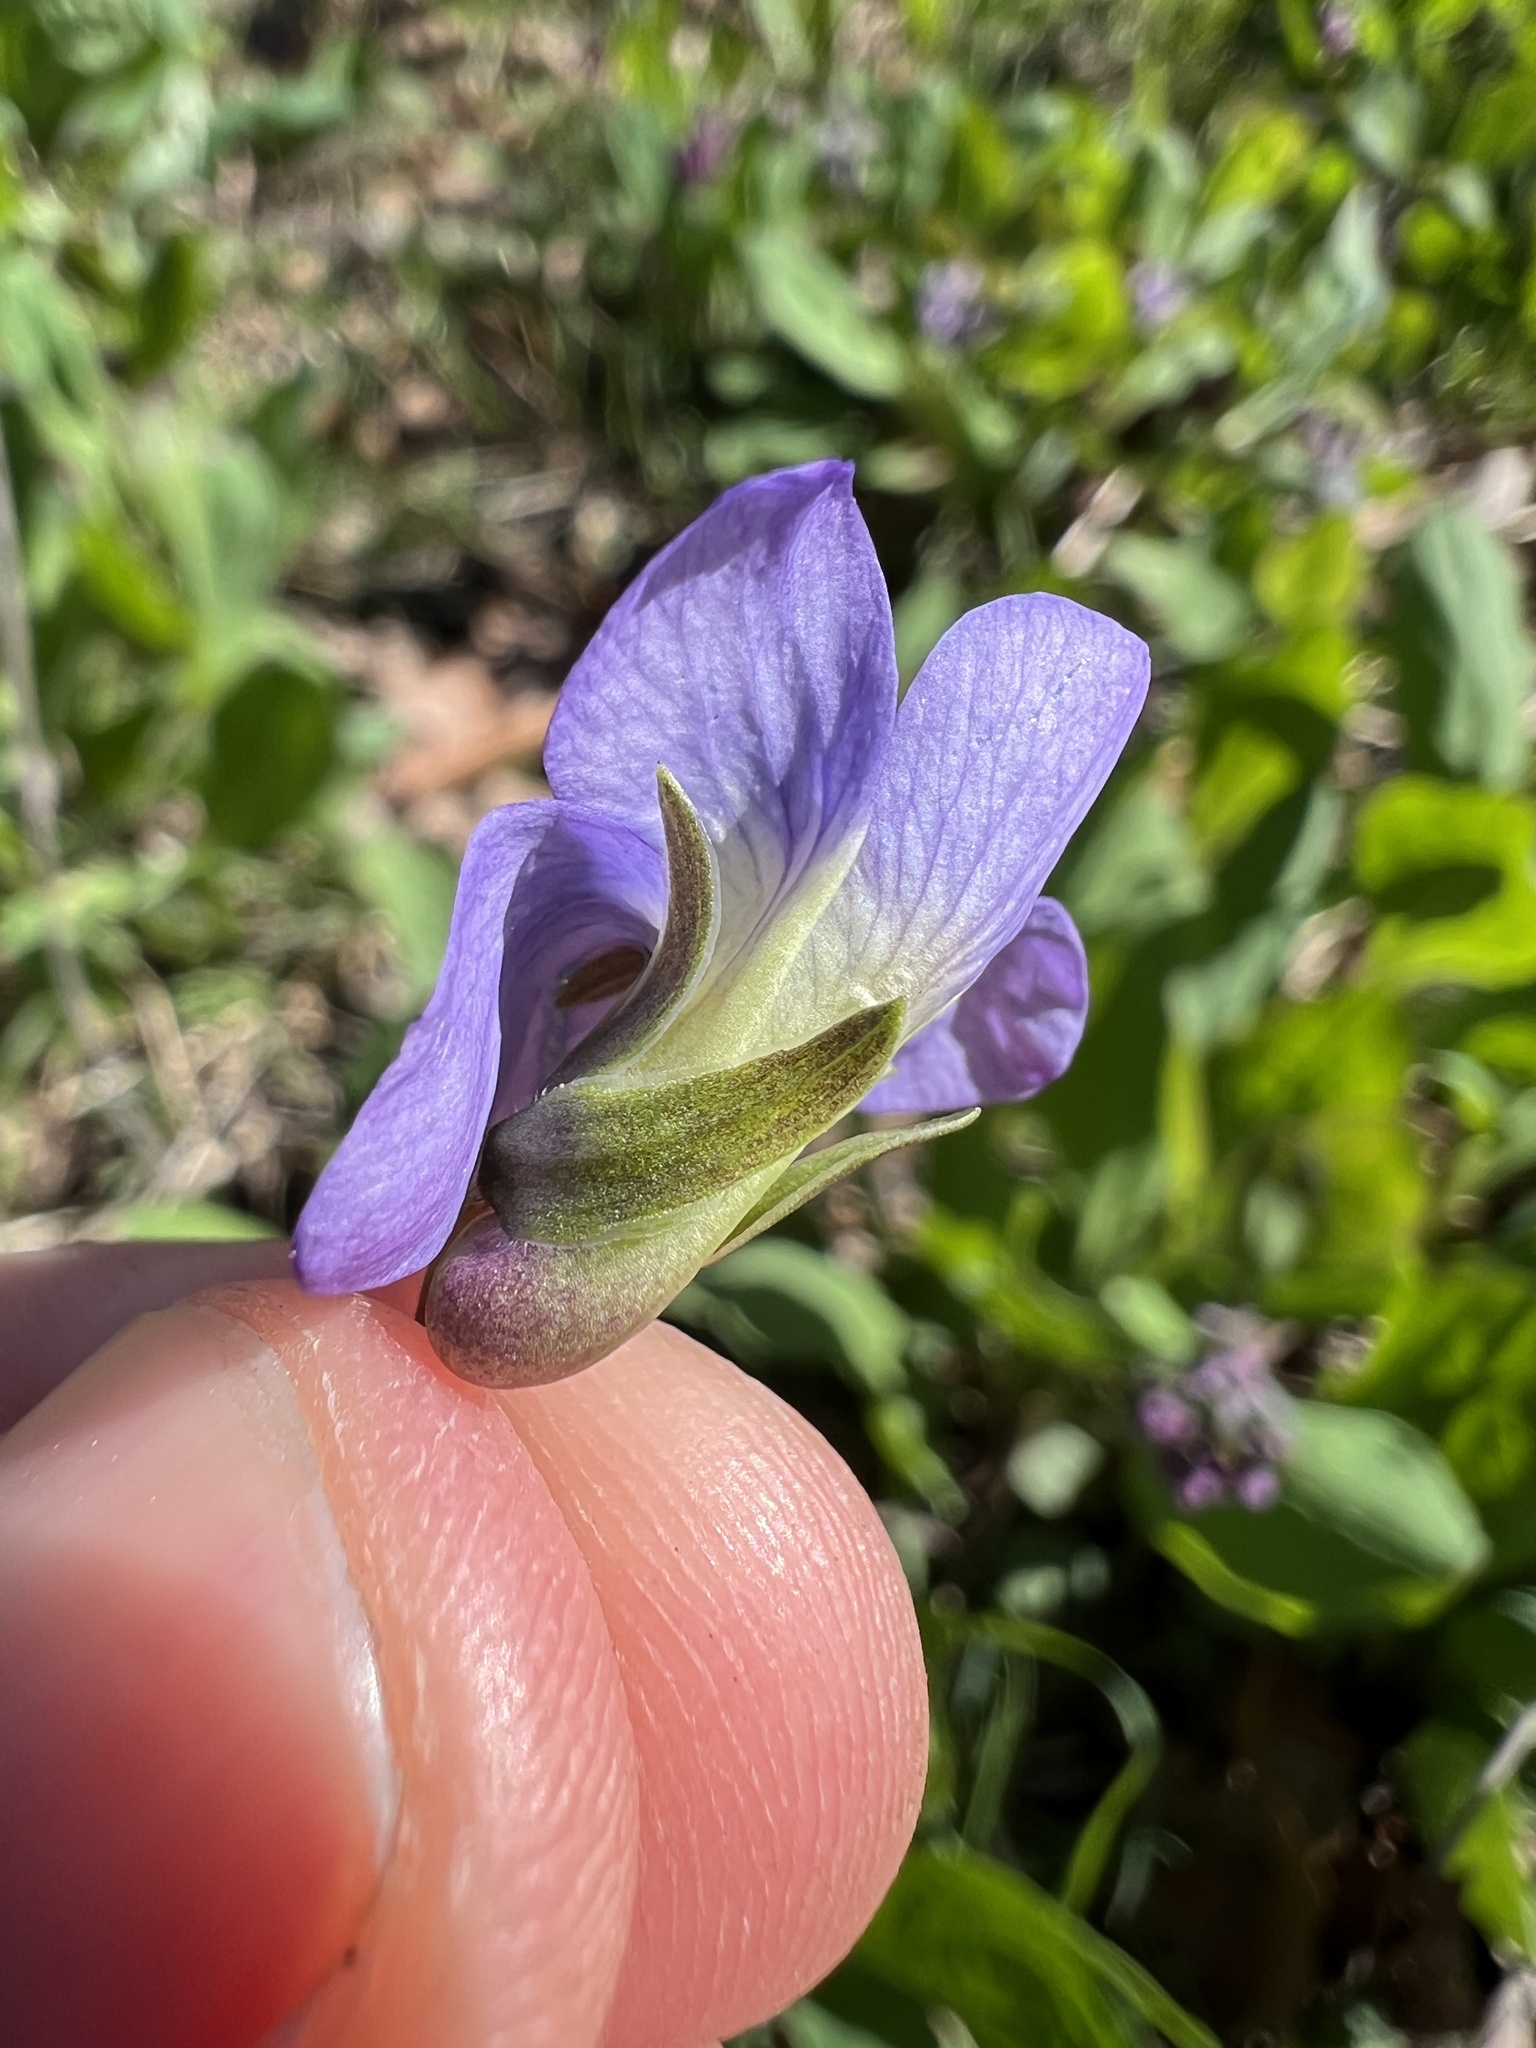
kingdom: Plantae
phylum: Tracheophyta
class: Magnoliopsida
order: Malpighiales
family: Violaceae
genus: Viola
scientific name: Viola sororia
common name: Dooryard violet
